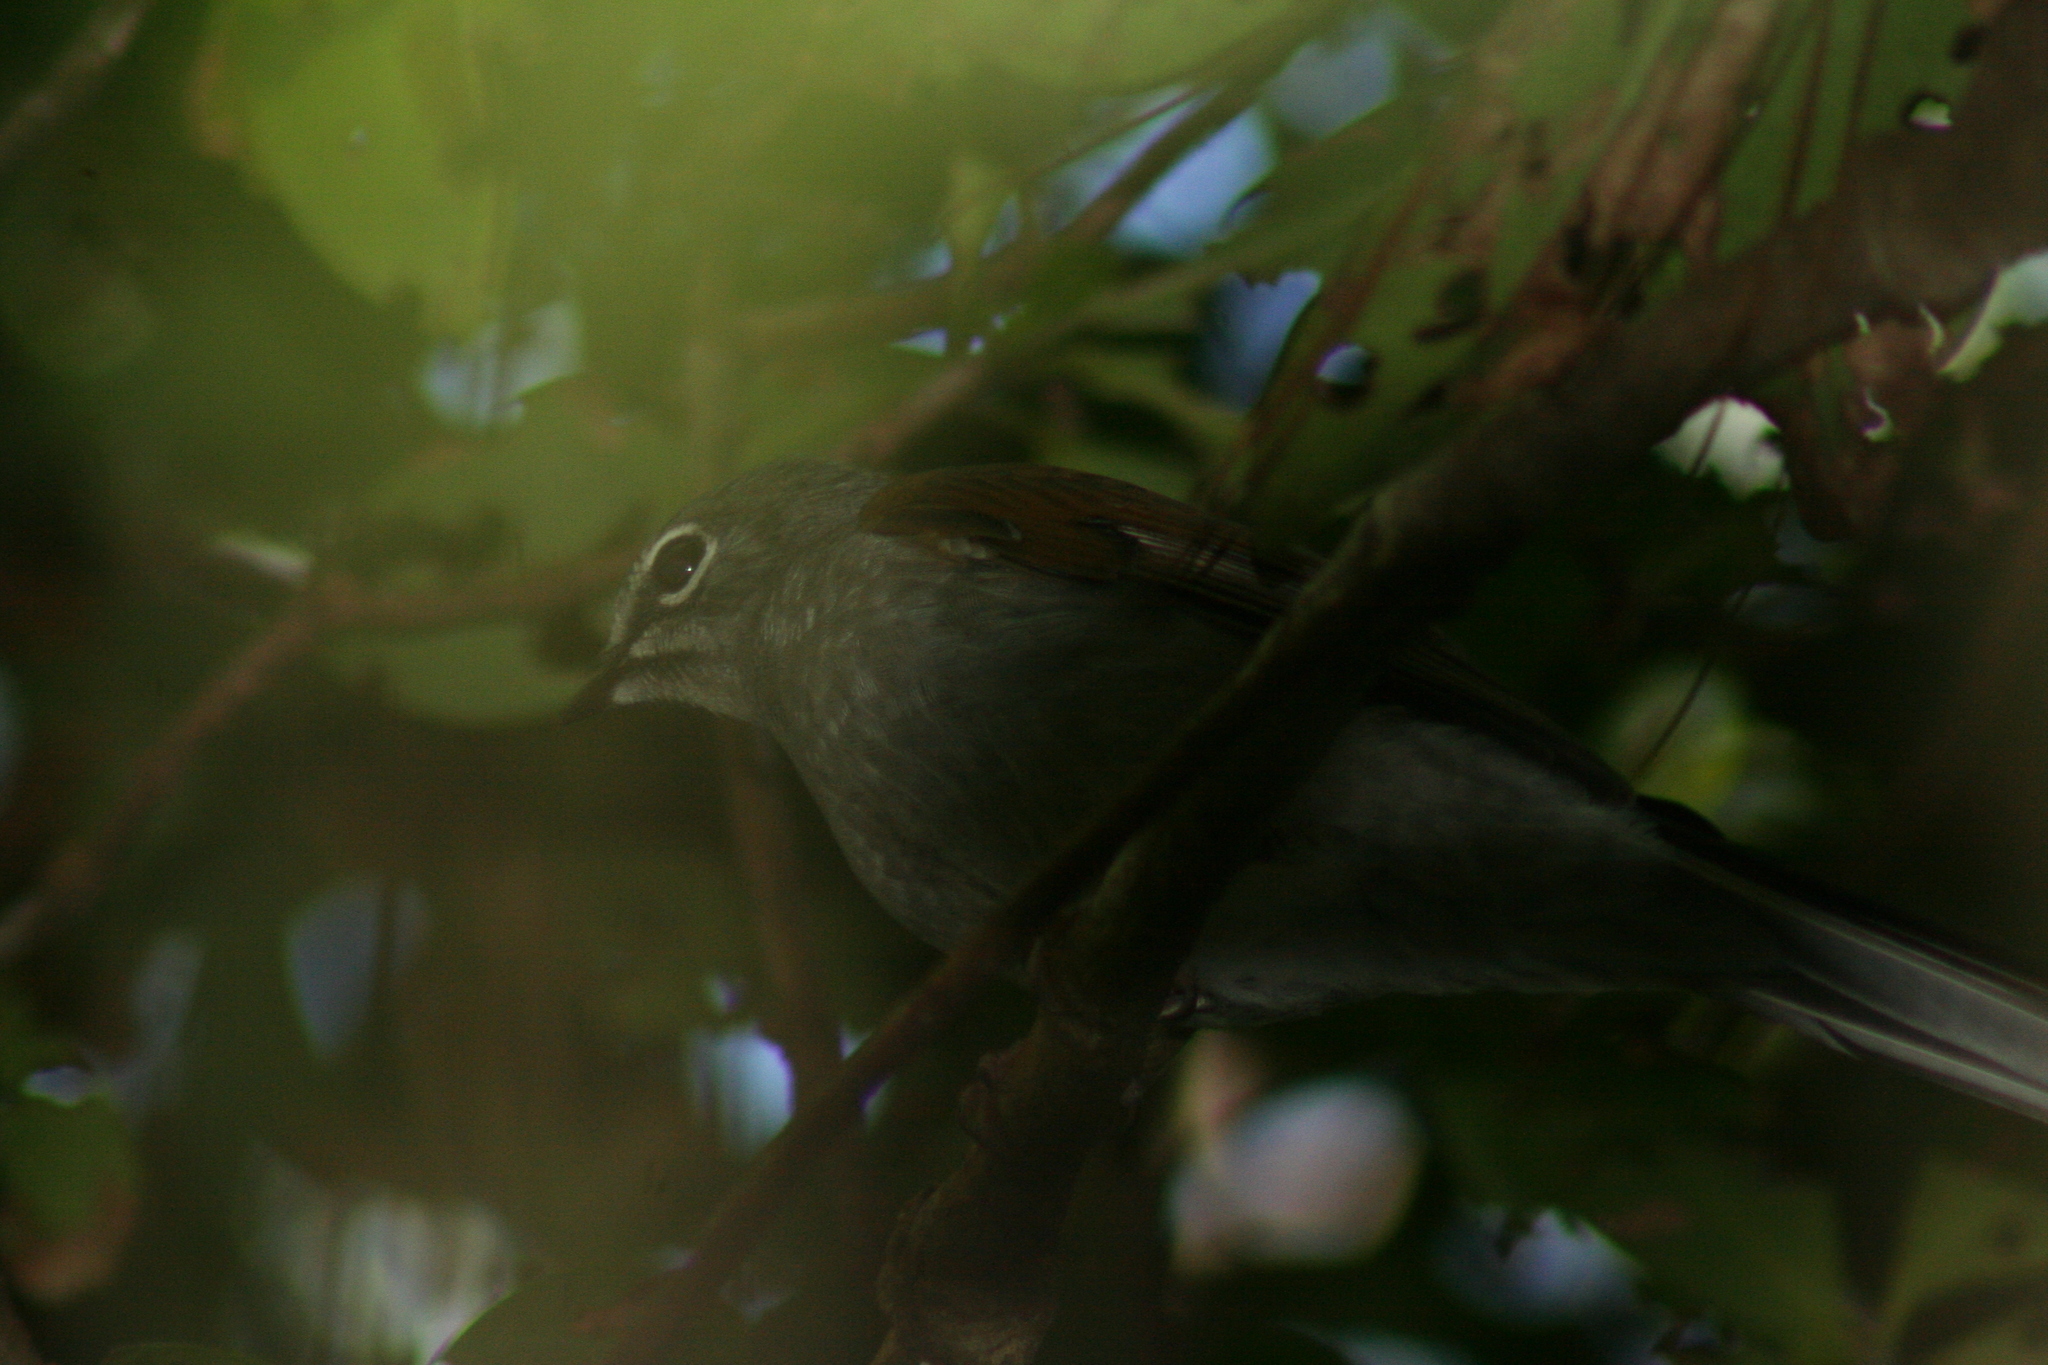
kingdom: Animalia
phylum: Chordata
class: Aves
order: Passeriformes
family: Turdidae
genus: Myadestes
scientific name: Myadestes occidentalis
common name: Brown-backed solitaire
